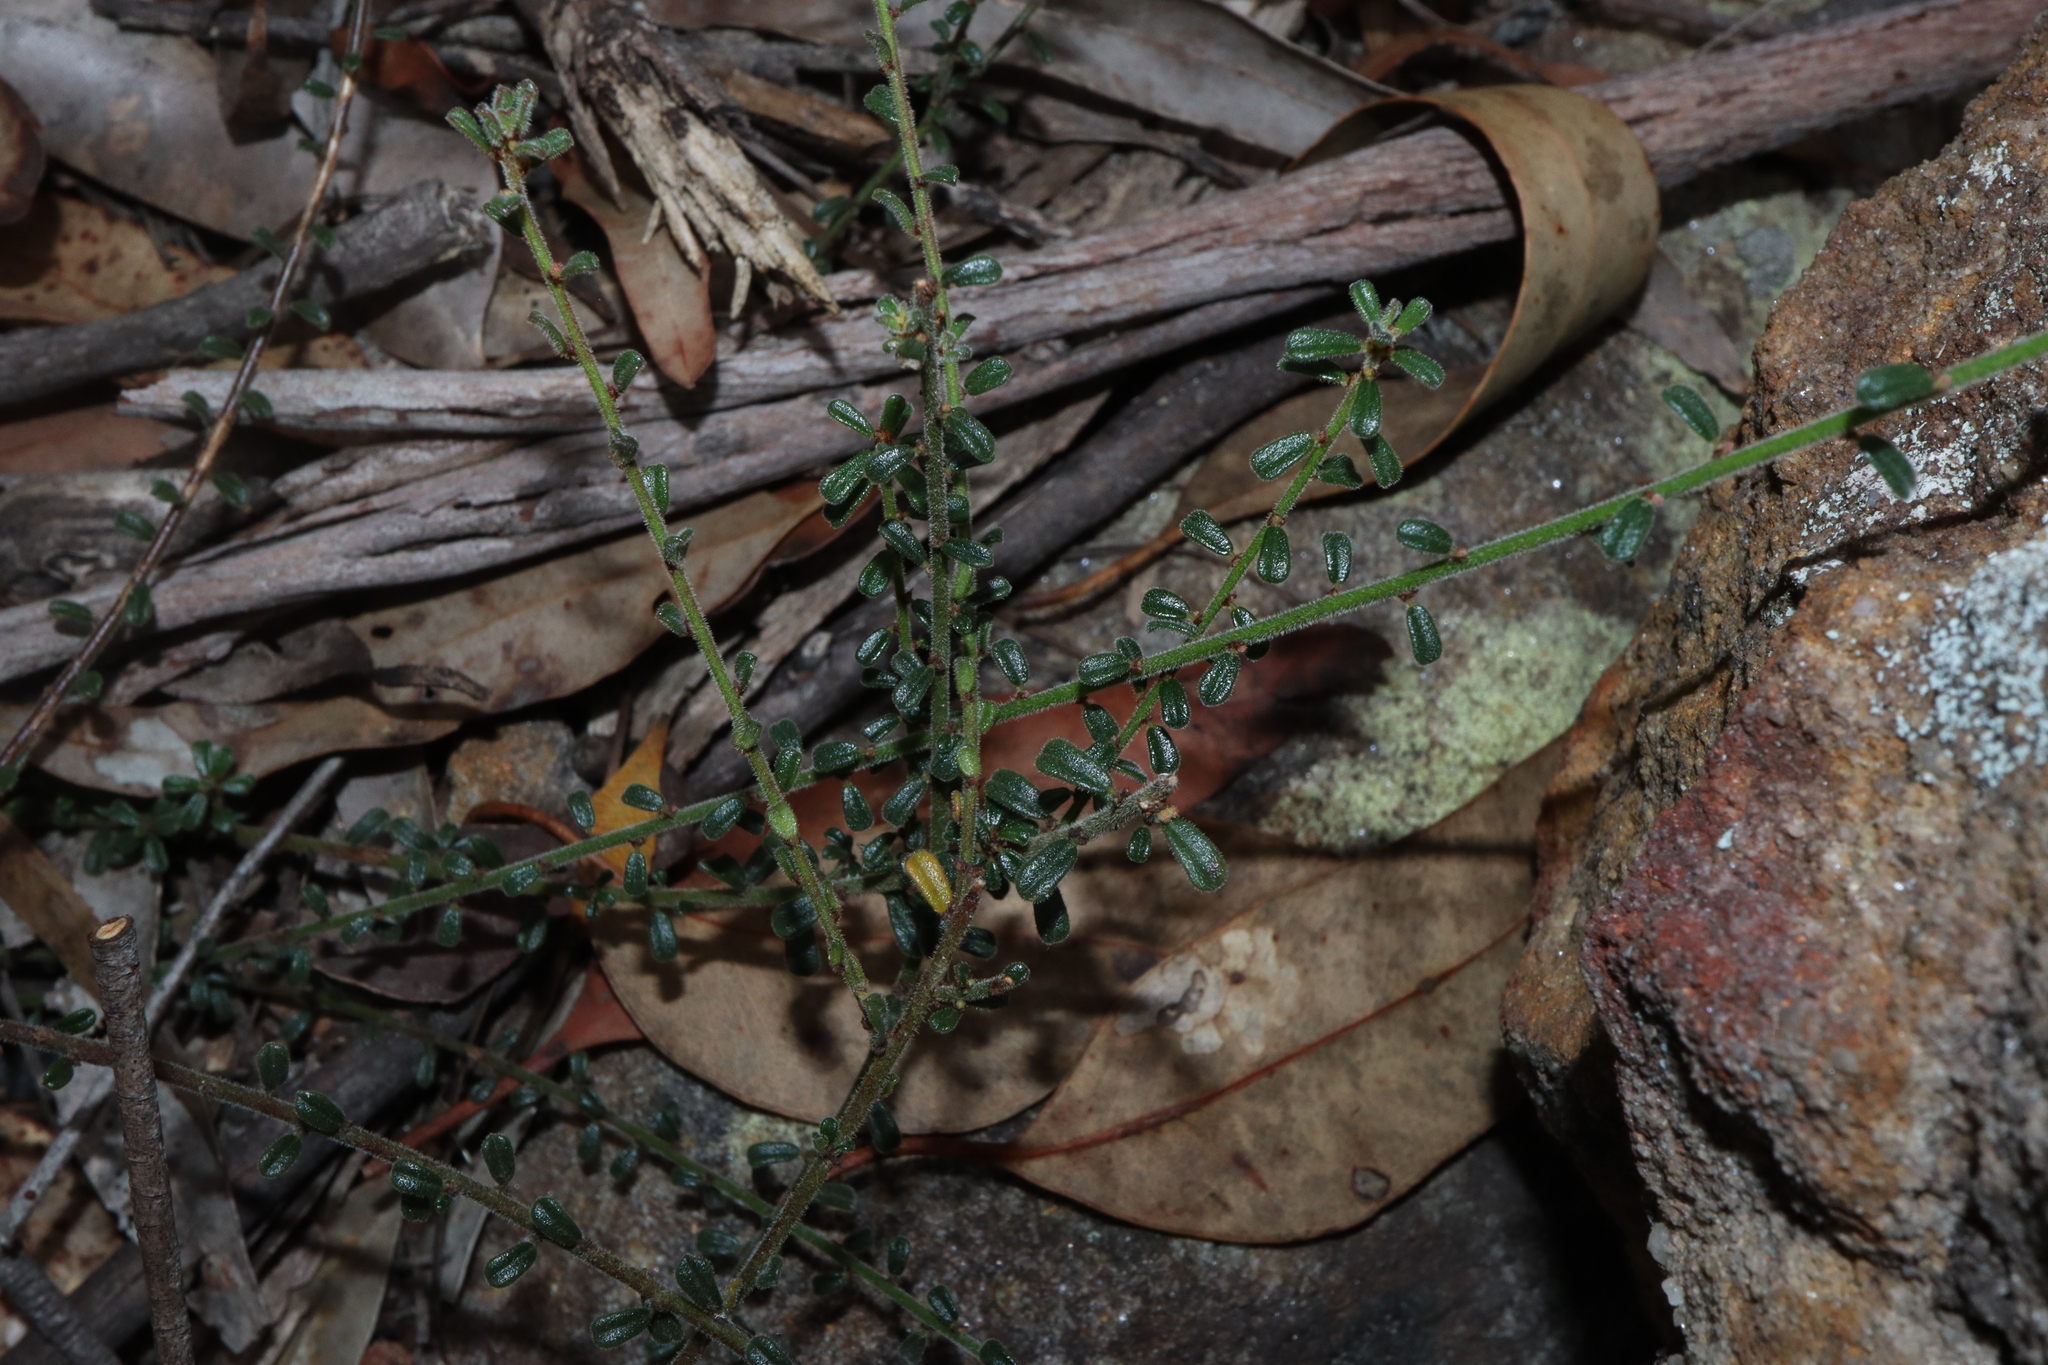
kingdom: Plantae
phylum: Tracheophyta
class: Magnoliopsida
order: Malpighiales
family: Phyllanthaceae
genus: Phyllanthus
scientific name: Phyllanthus hirtellus
